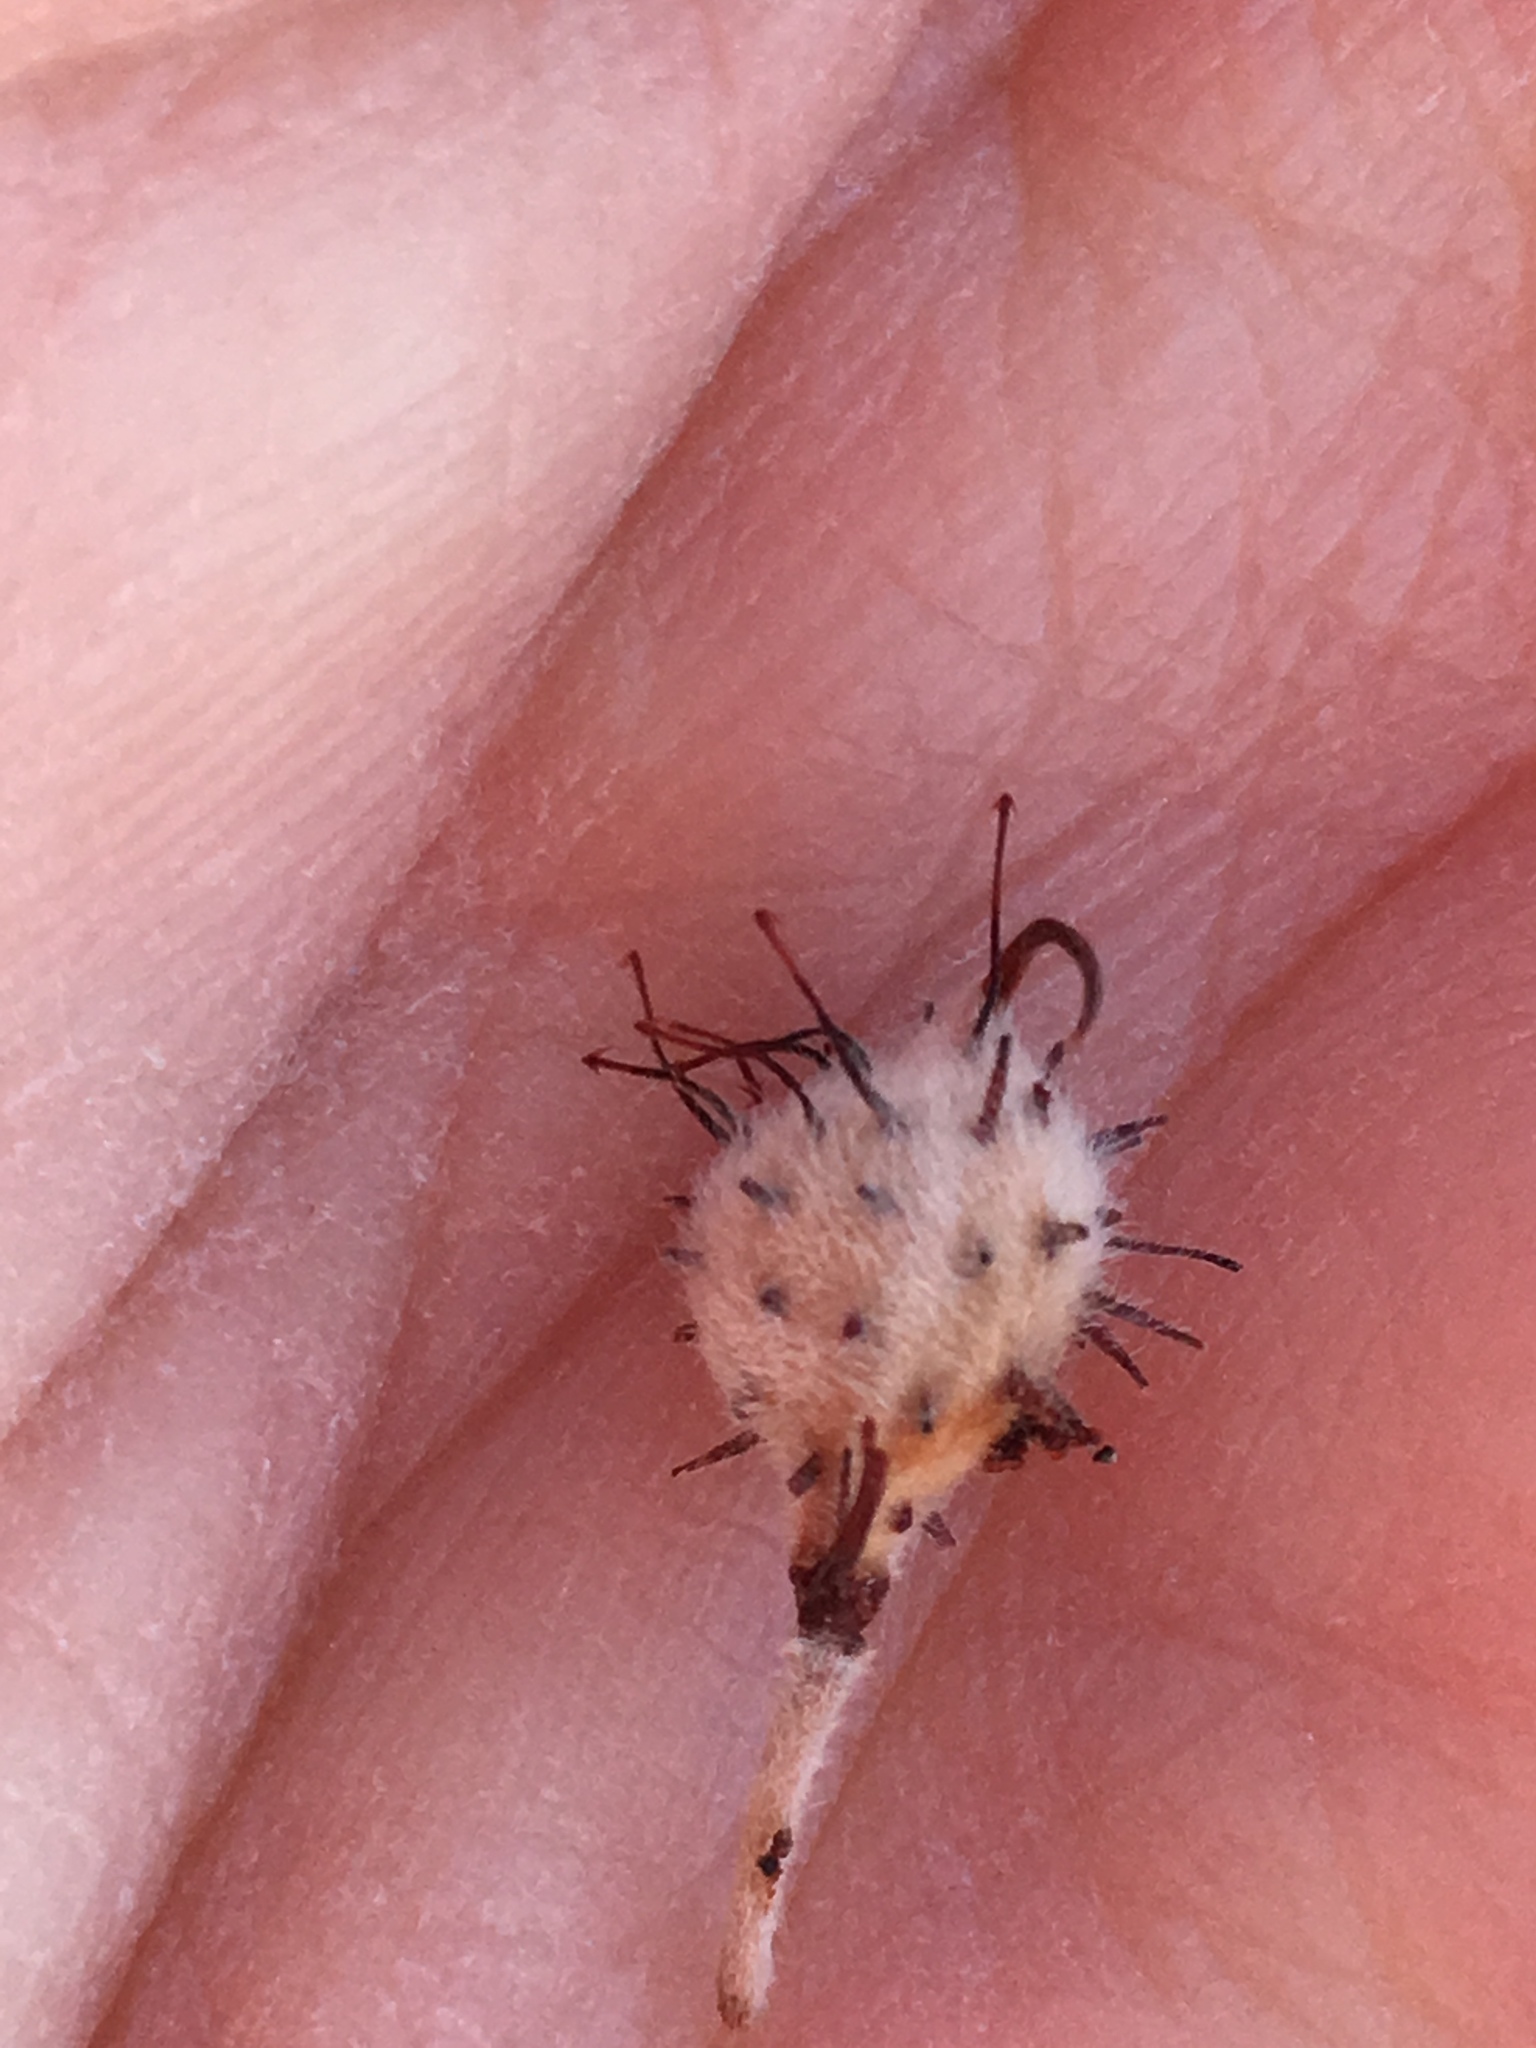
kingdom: Plantae
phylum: Tracheophyta
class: Magnoliopsida
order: Zygophyllales
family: Krameriaceae
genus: Krameria
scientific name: Krameria bicolor
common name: White ratany
